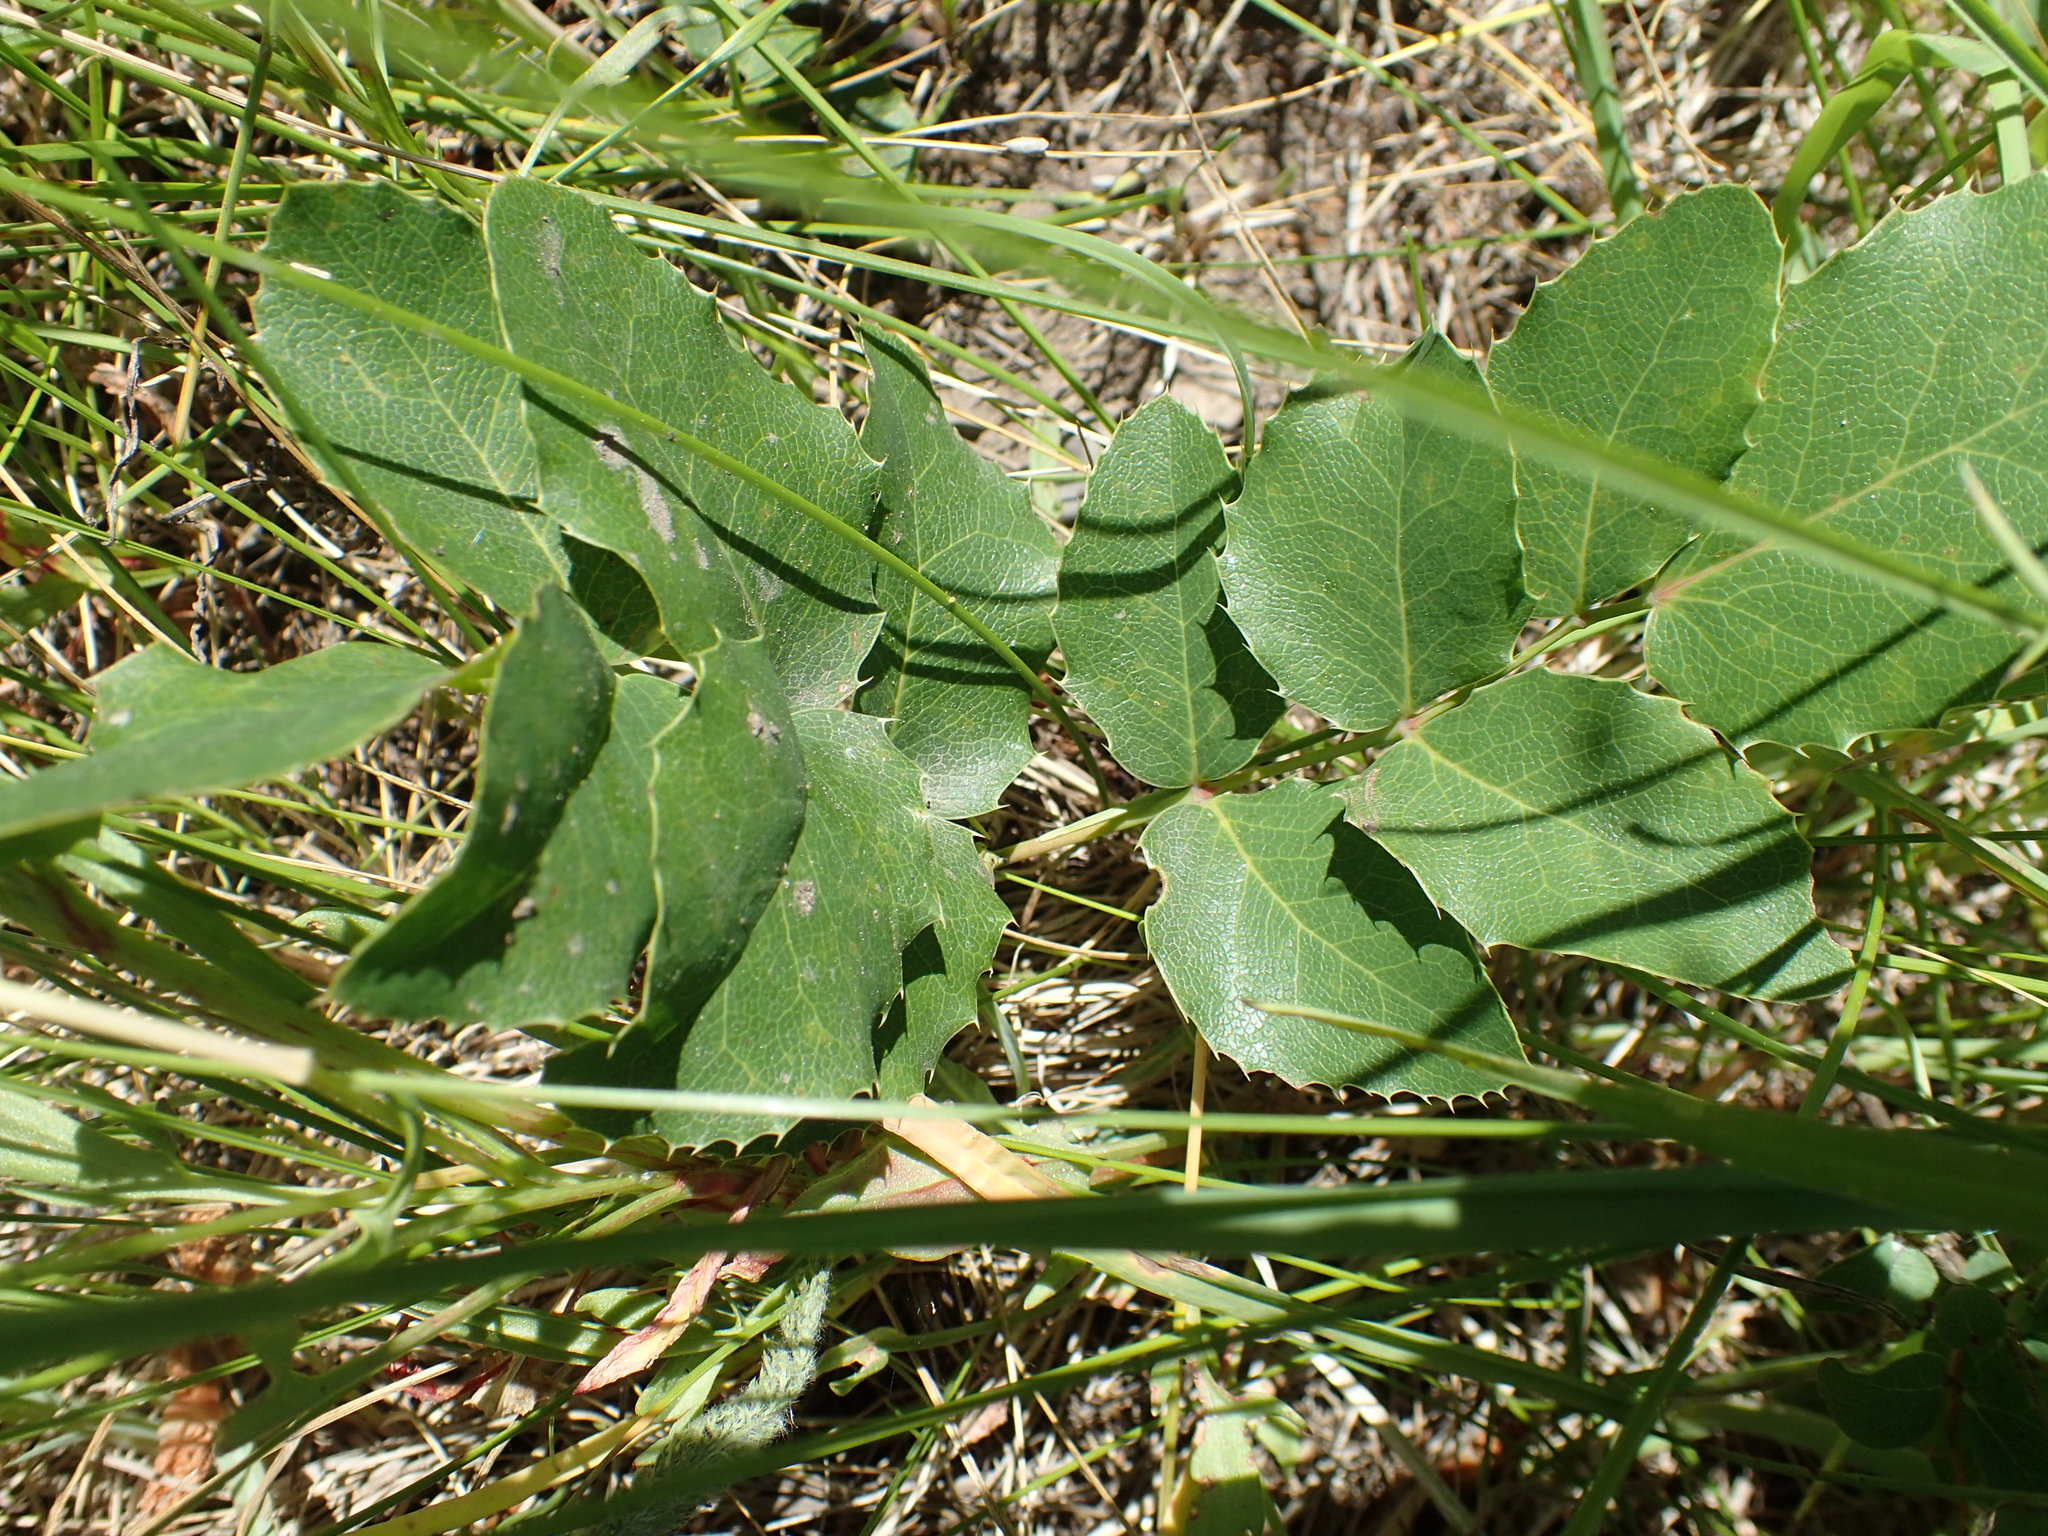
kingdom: Plantae
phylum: Tracheophyta
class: Magnoliopsida
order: Ranunculales
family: Berberidaceae
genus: Mahonia
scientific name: Mahonia repens
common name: Creeping oregon-grape
